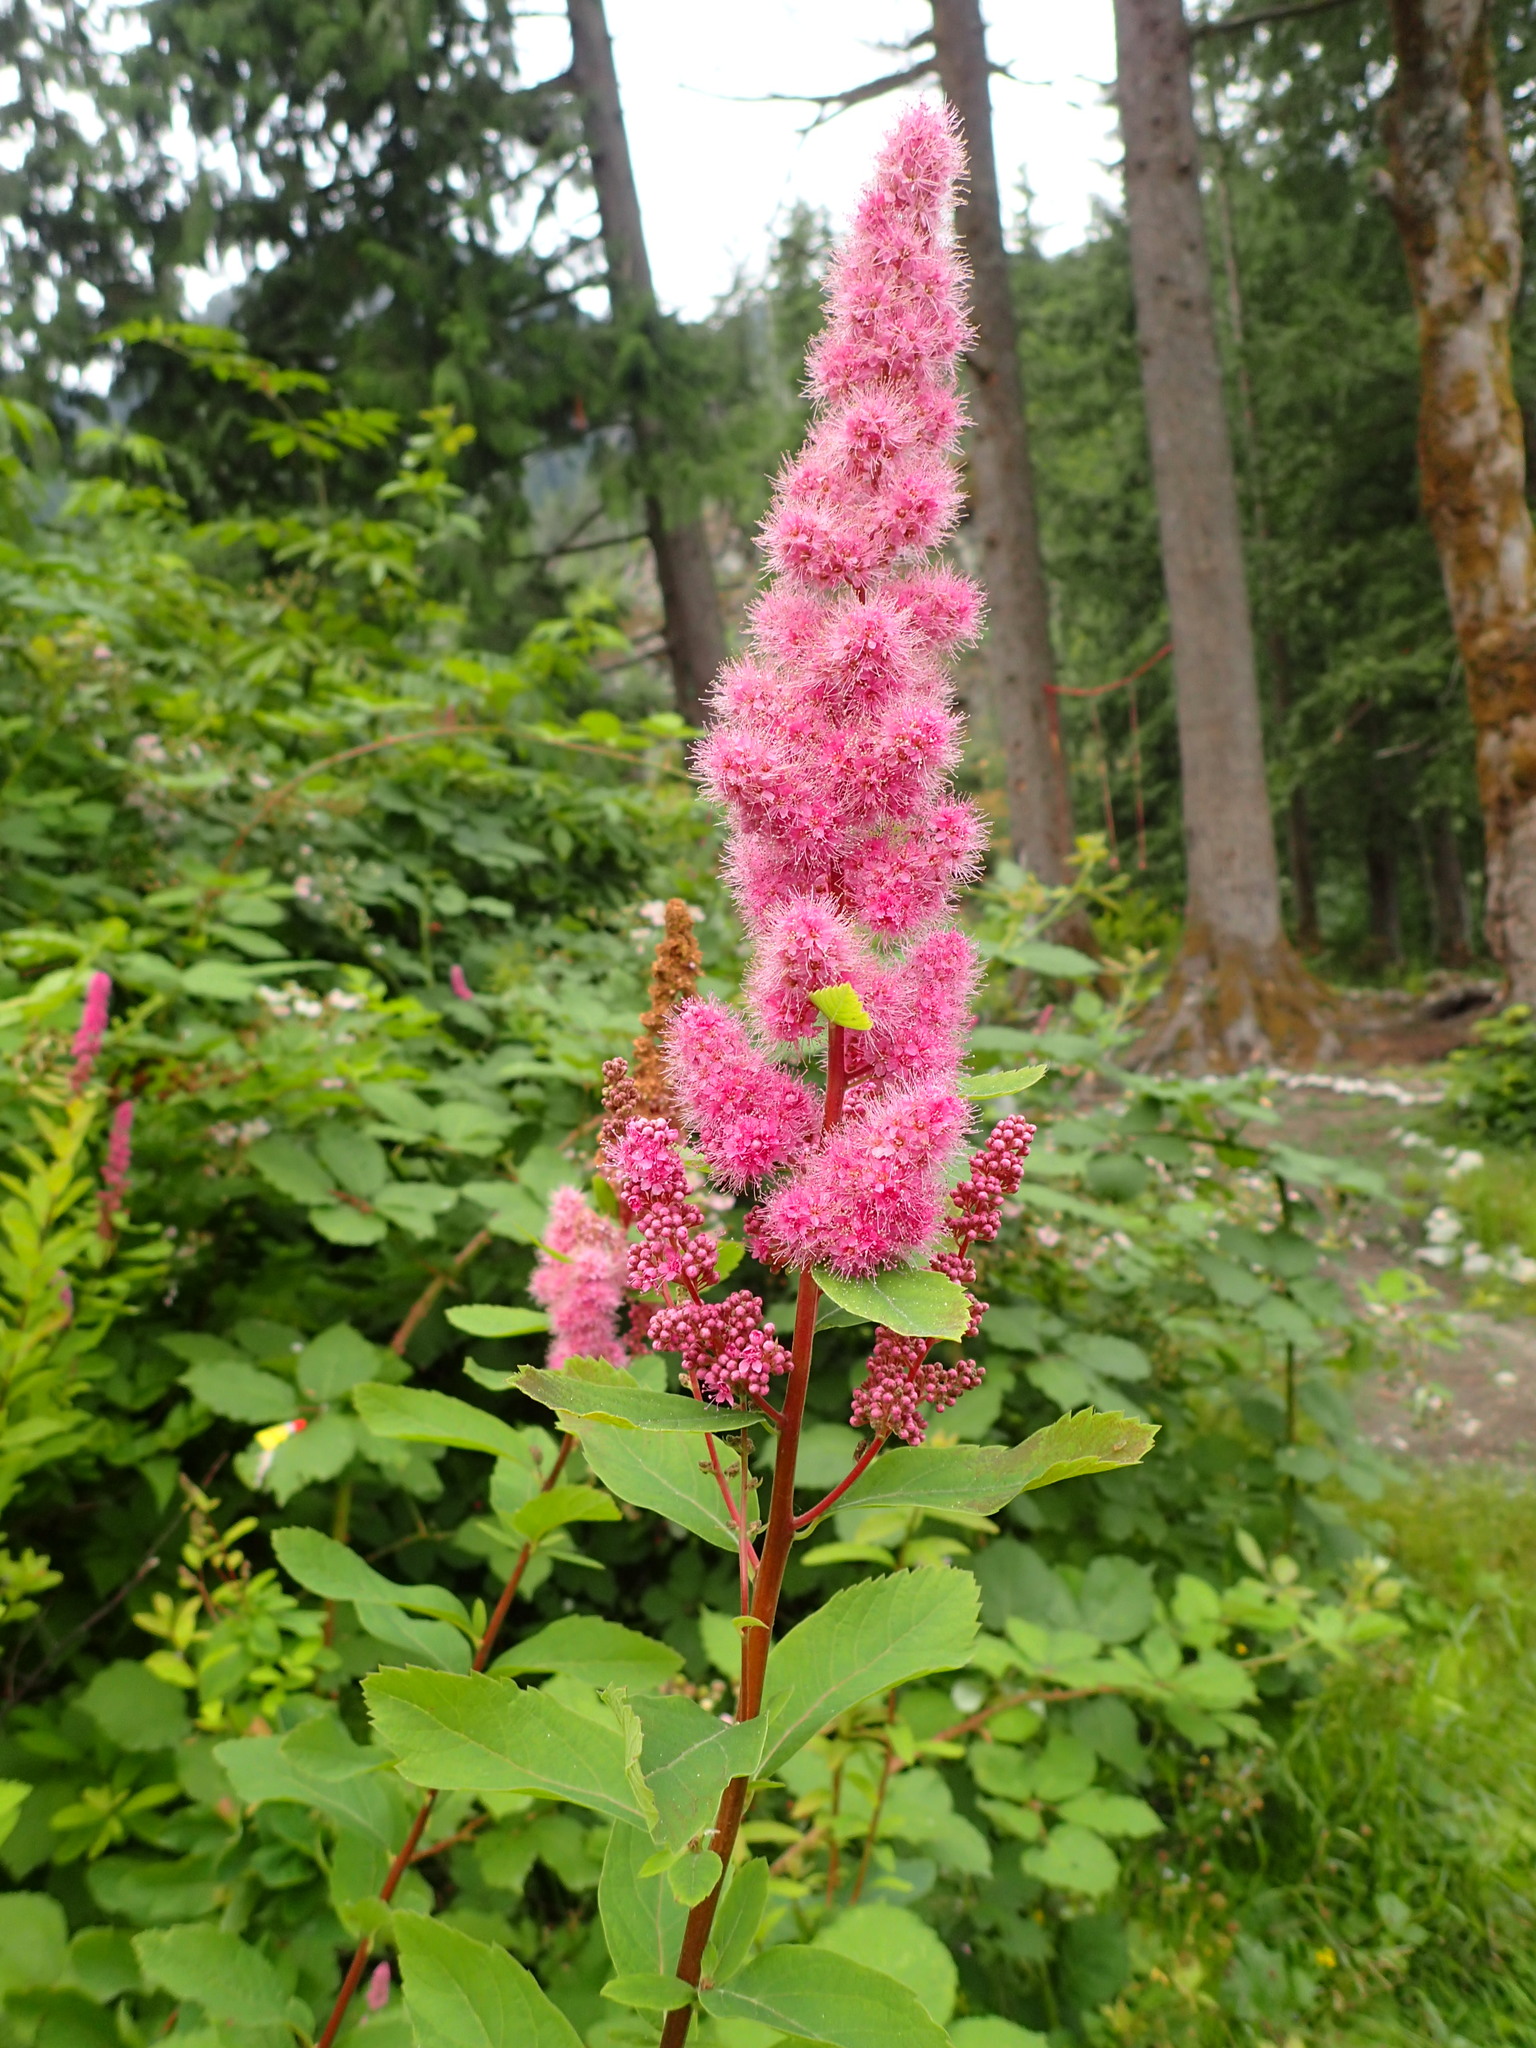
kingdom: Plantae
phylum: Tracheophyta
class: Magnoliopsida
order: Rosales
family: Rosaceae
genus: Spiraea
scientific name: Spiraea douglasii
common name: Steeplebush
